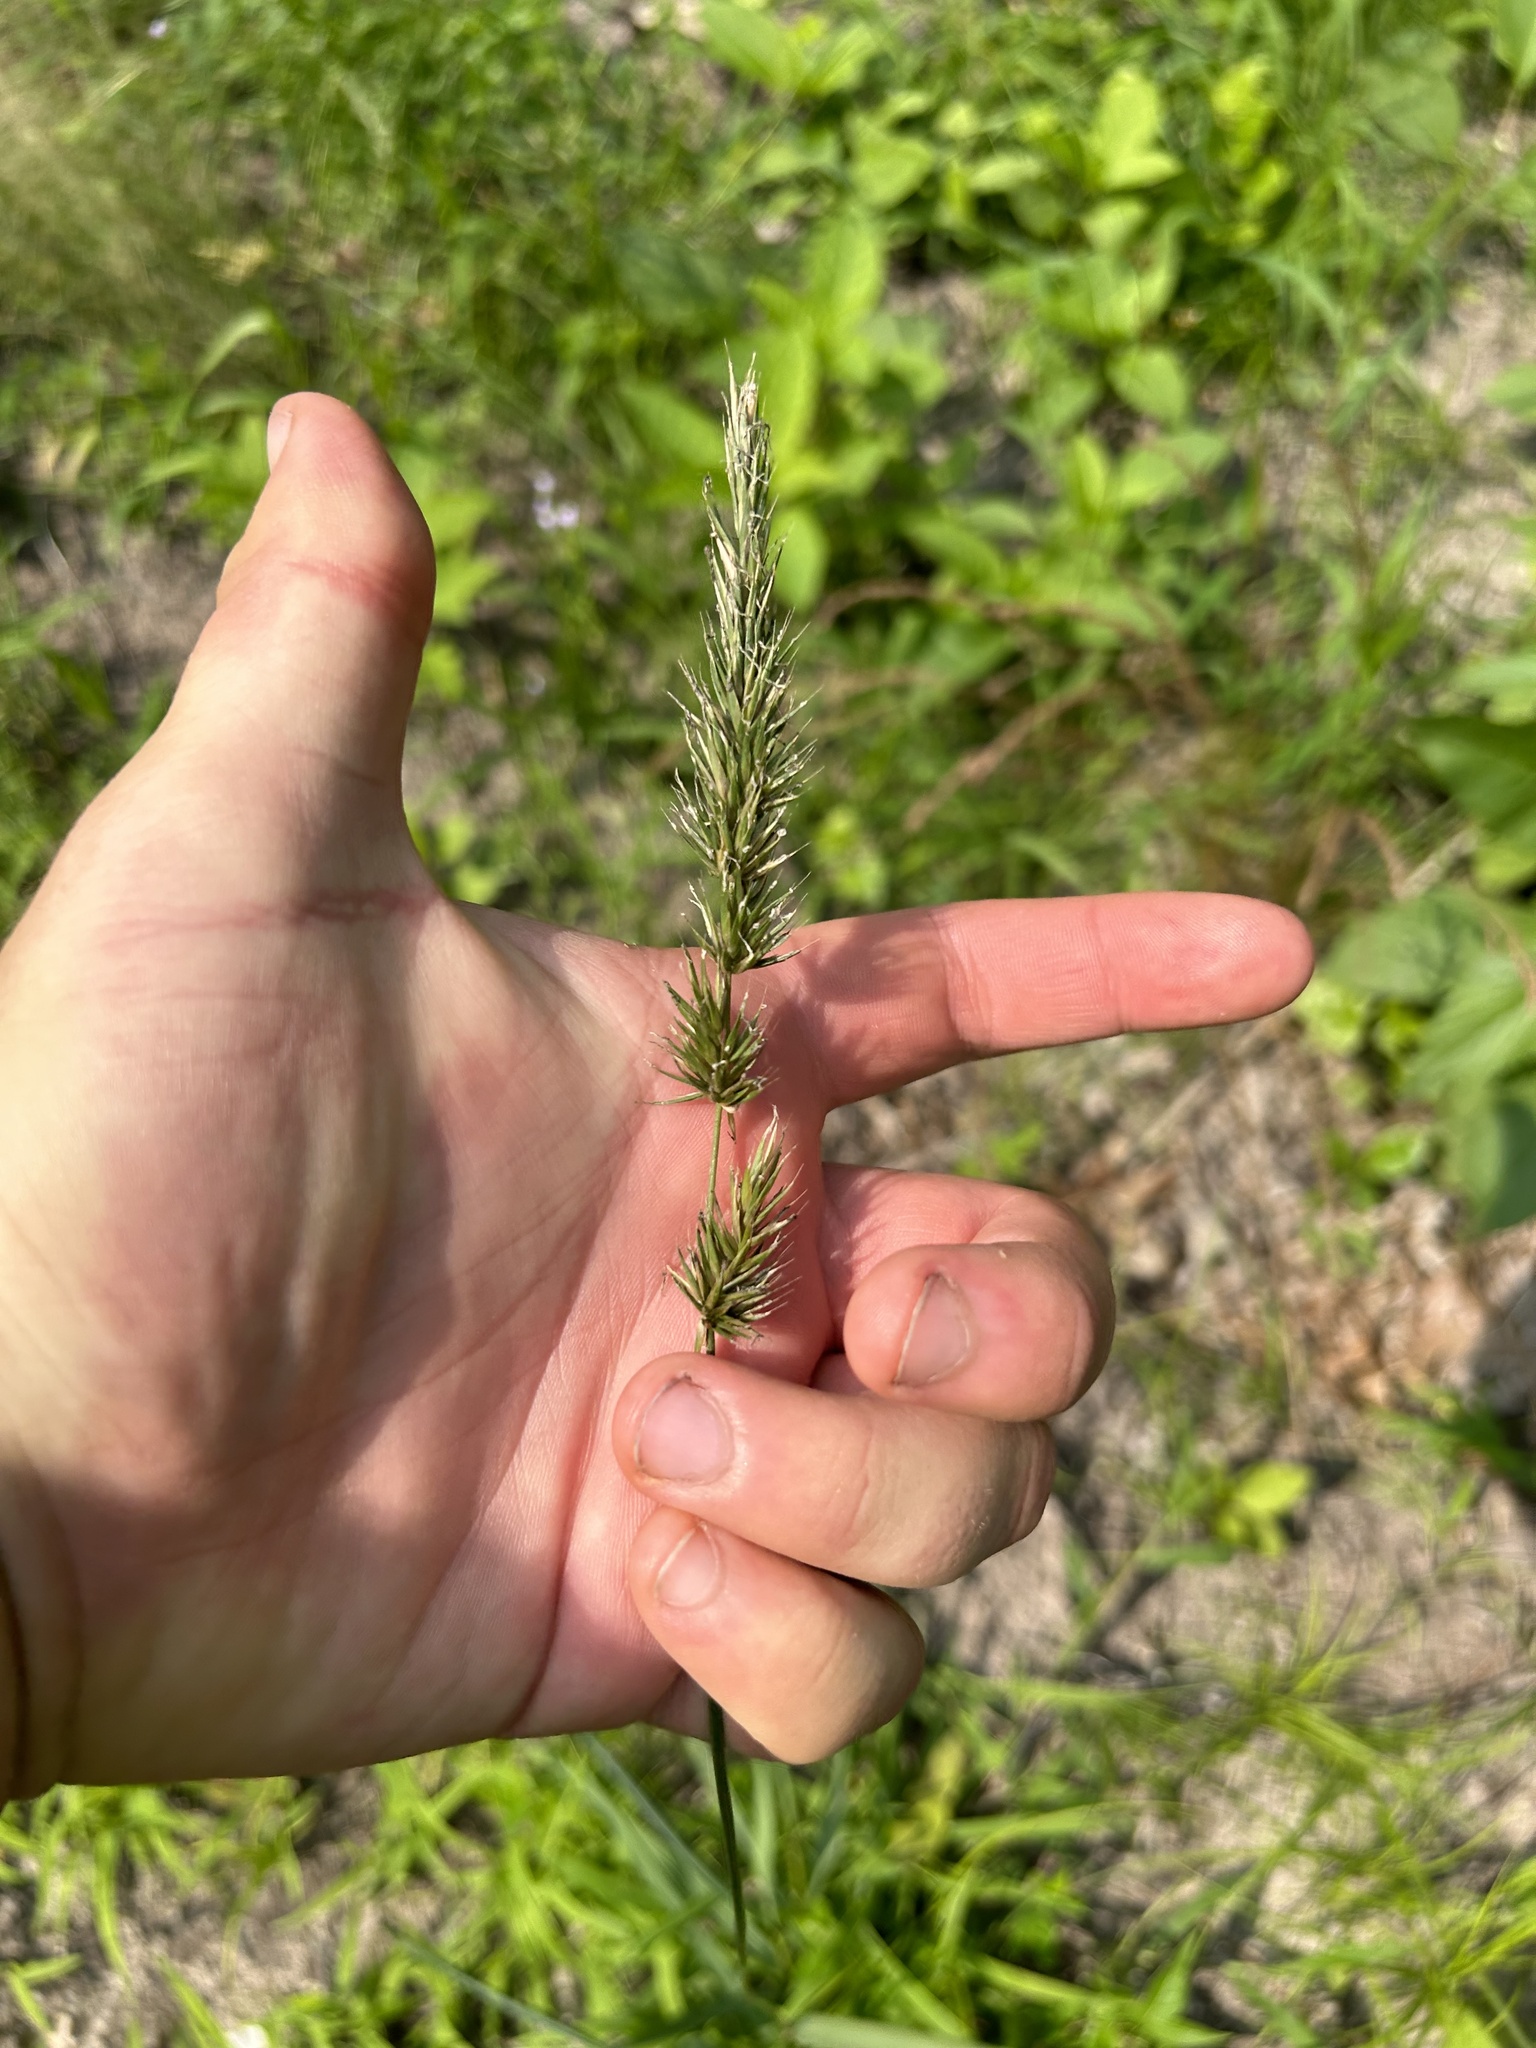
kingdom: Plantae
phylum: Tracheophyta
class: Liliopsida
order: Poales
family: Poaceae
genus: Anthoxanthum
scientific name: Anthoxanthum odoratum
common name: Sweet vernalgrass
